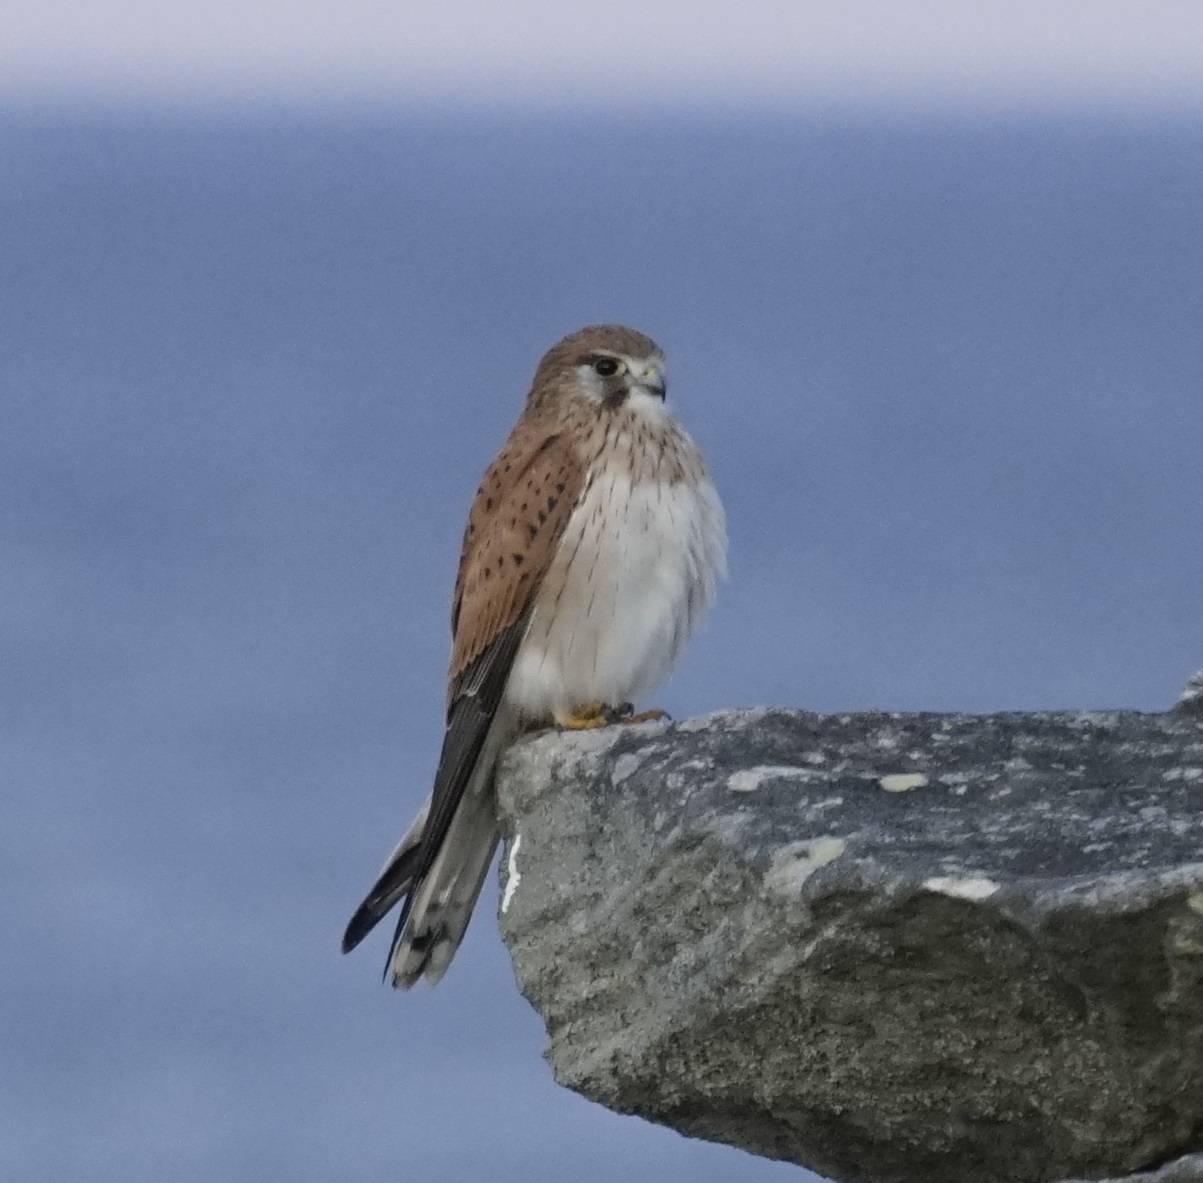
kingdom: Animalia
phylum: Chordata
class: Aves
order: Falconiformes
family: Falconidae
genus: Falco
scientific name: Falco cenchroides
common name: Nankeen kestrel
